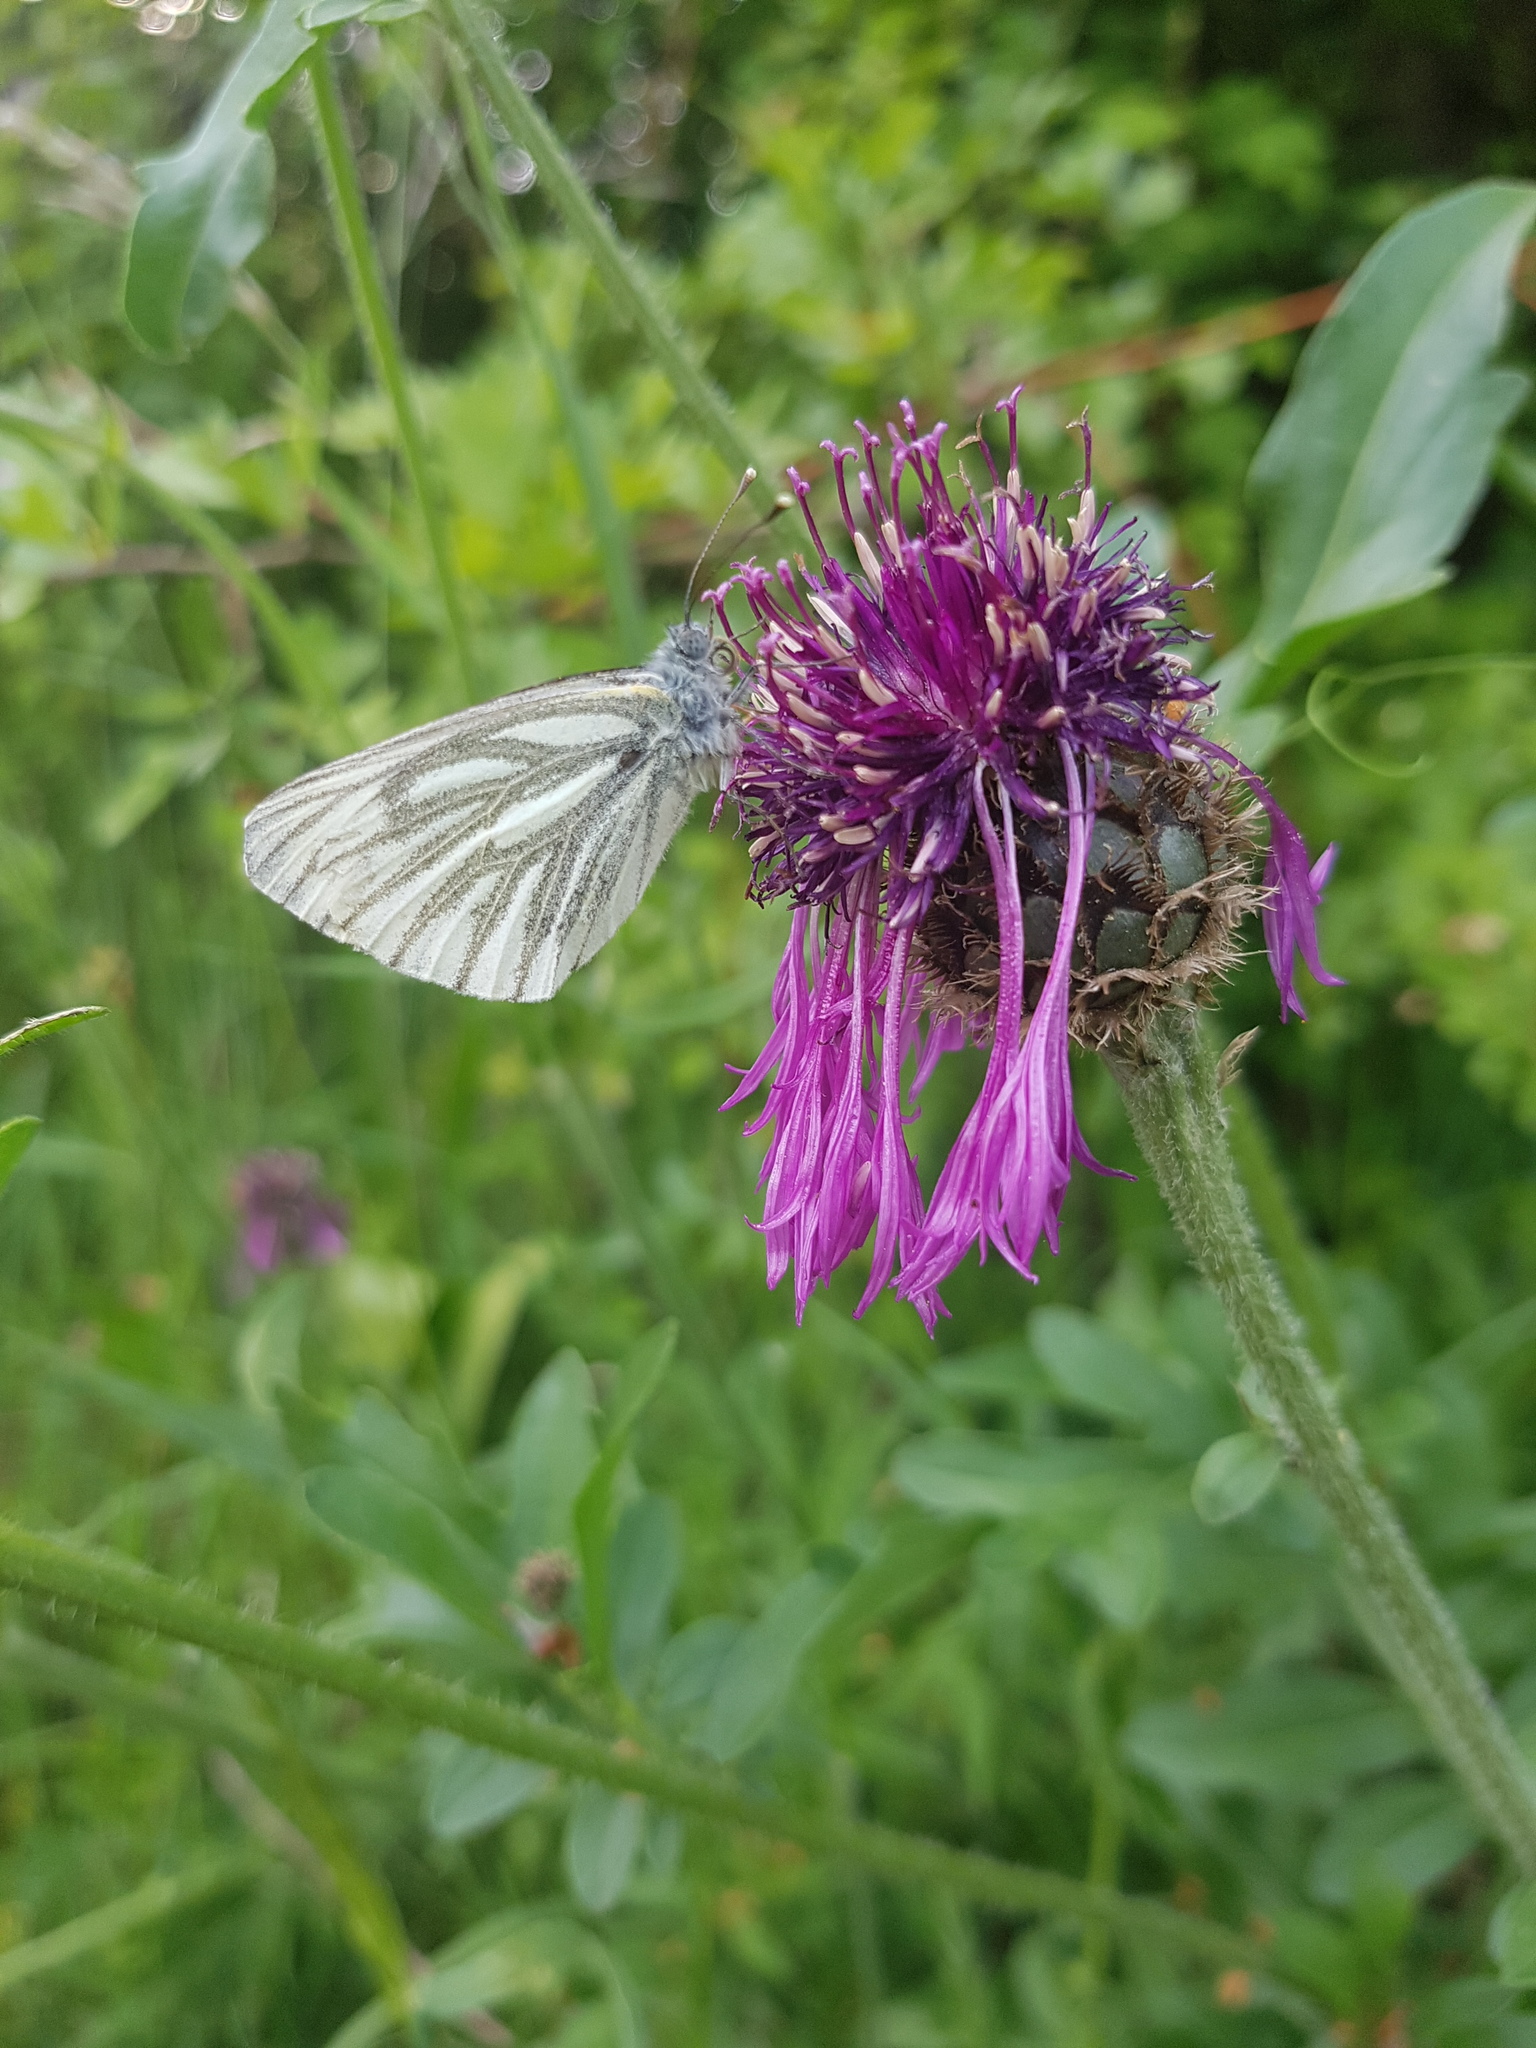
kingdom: Animalia
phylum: Arthropoda
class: Insecta
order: Lepidoptera
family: Pieridae
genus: Pieris
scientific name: Pieris napi
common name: Green-veined white
